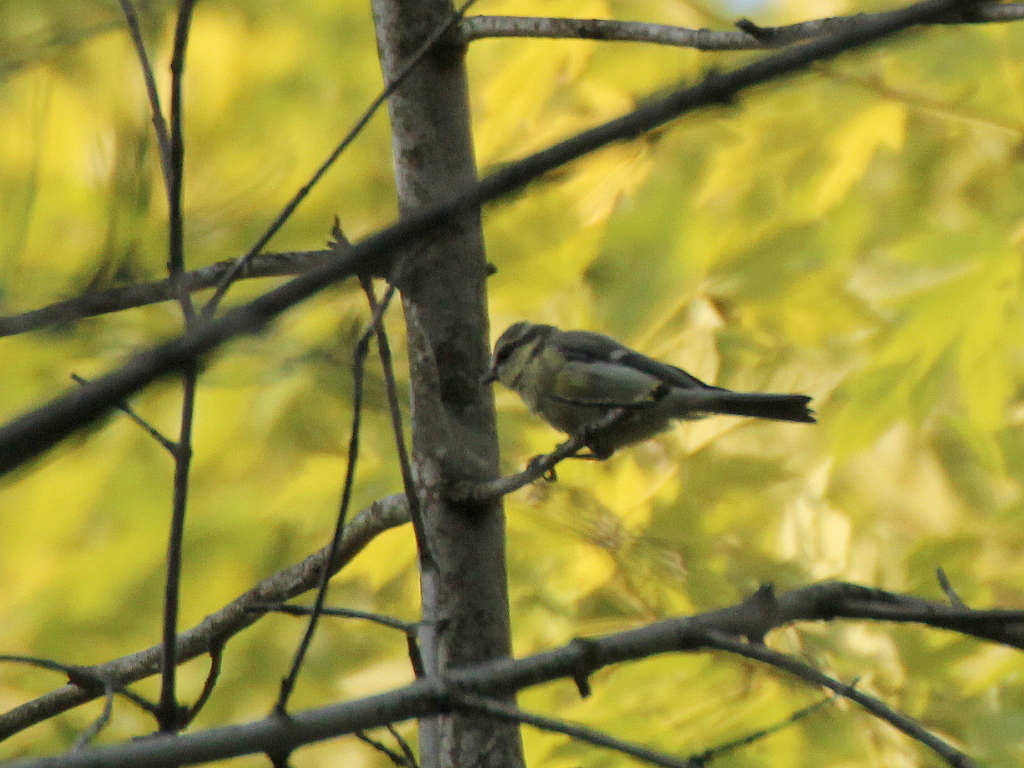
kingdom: Animalia
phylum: Chordata
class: Aves
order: Passeriformes
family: Paridae
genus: Cyanistes
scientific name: Cyanistes caeruleus
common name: Eurasian blue tit
